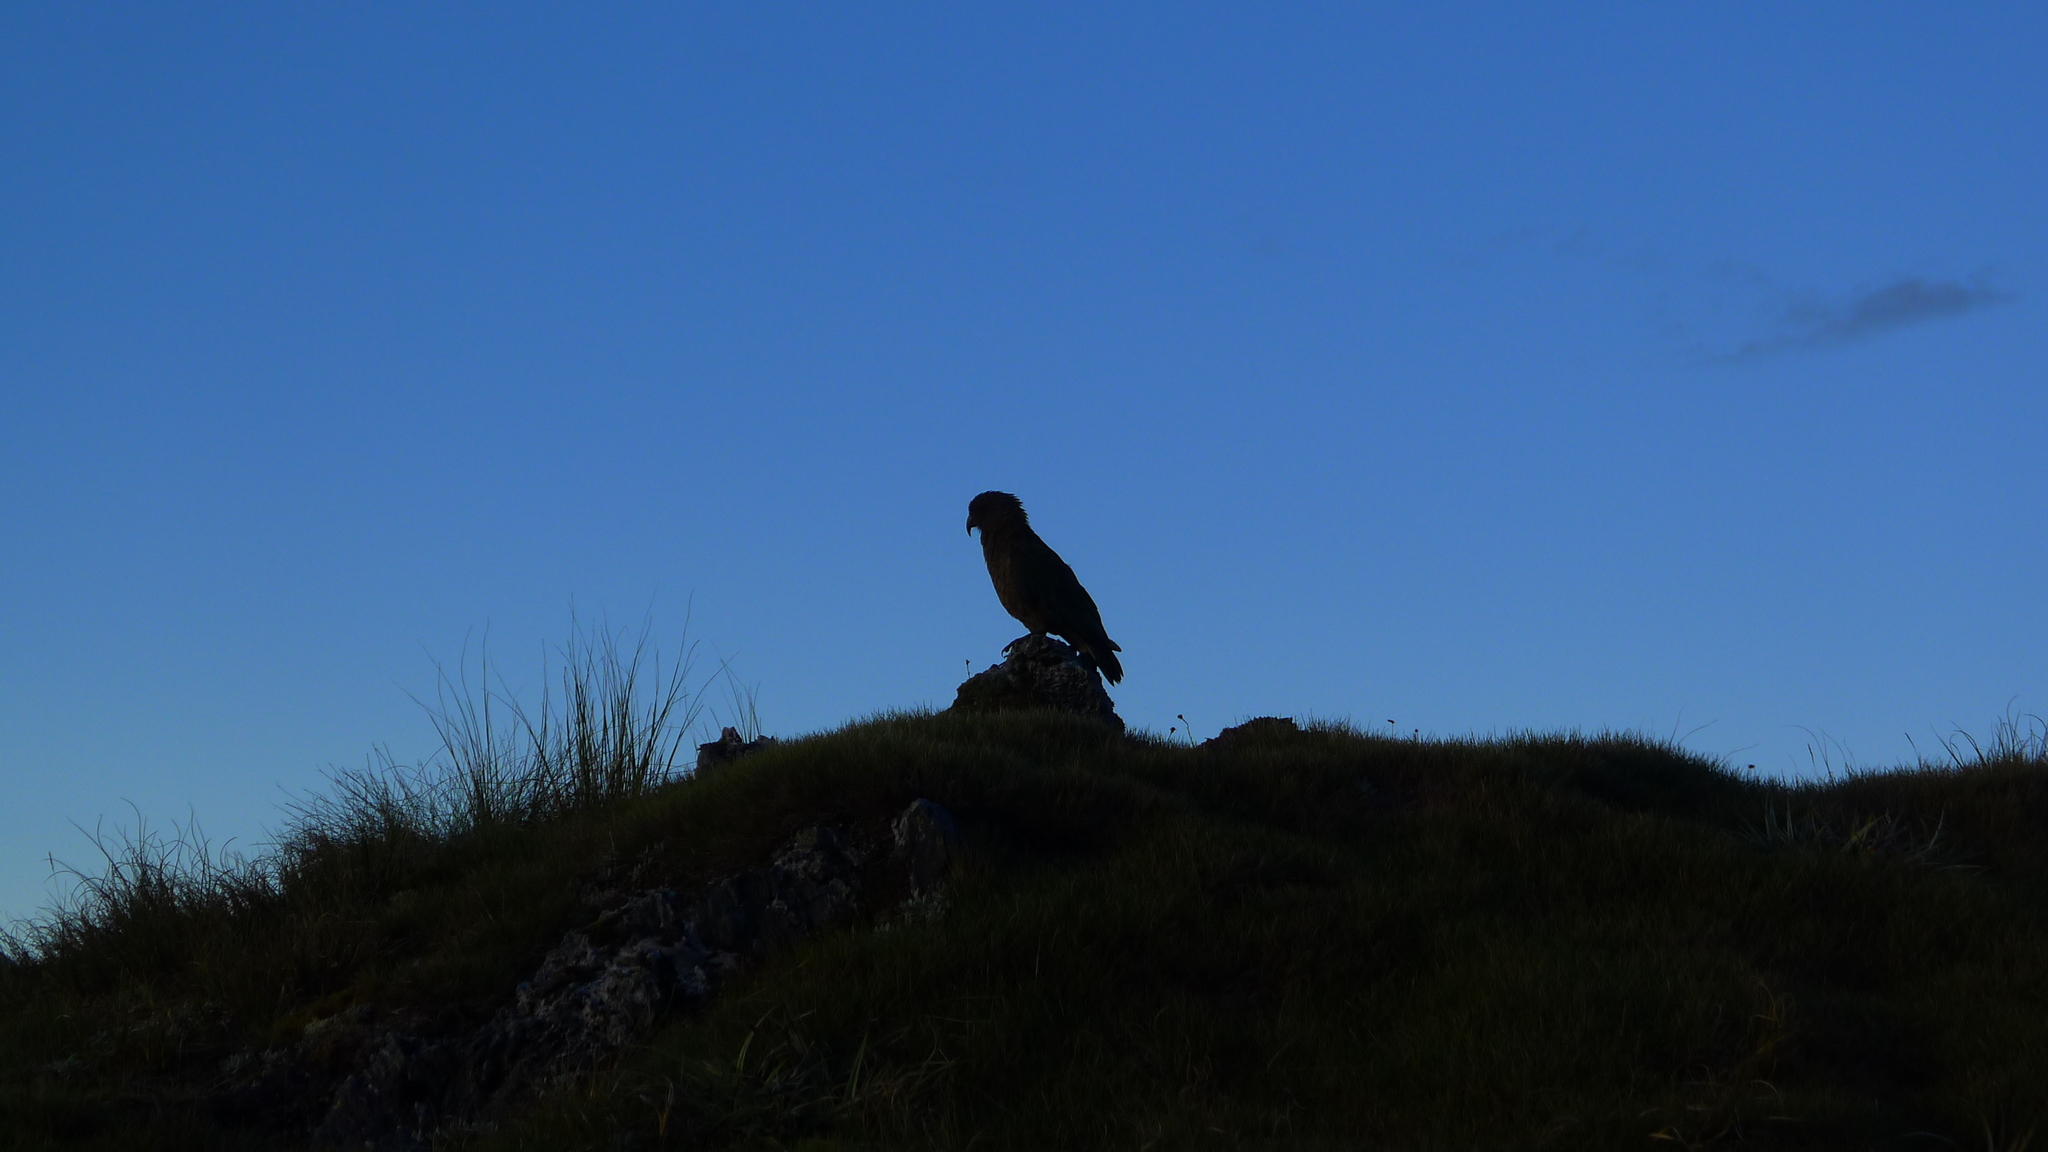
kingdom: Animalia
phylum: Chordata
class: Aves
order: Psittaciformes
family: Psittacidae
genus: Nestor
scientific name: Nestor notabilis
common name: Kea
